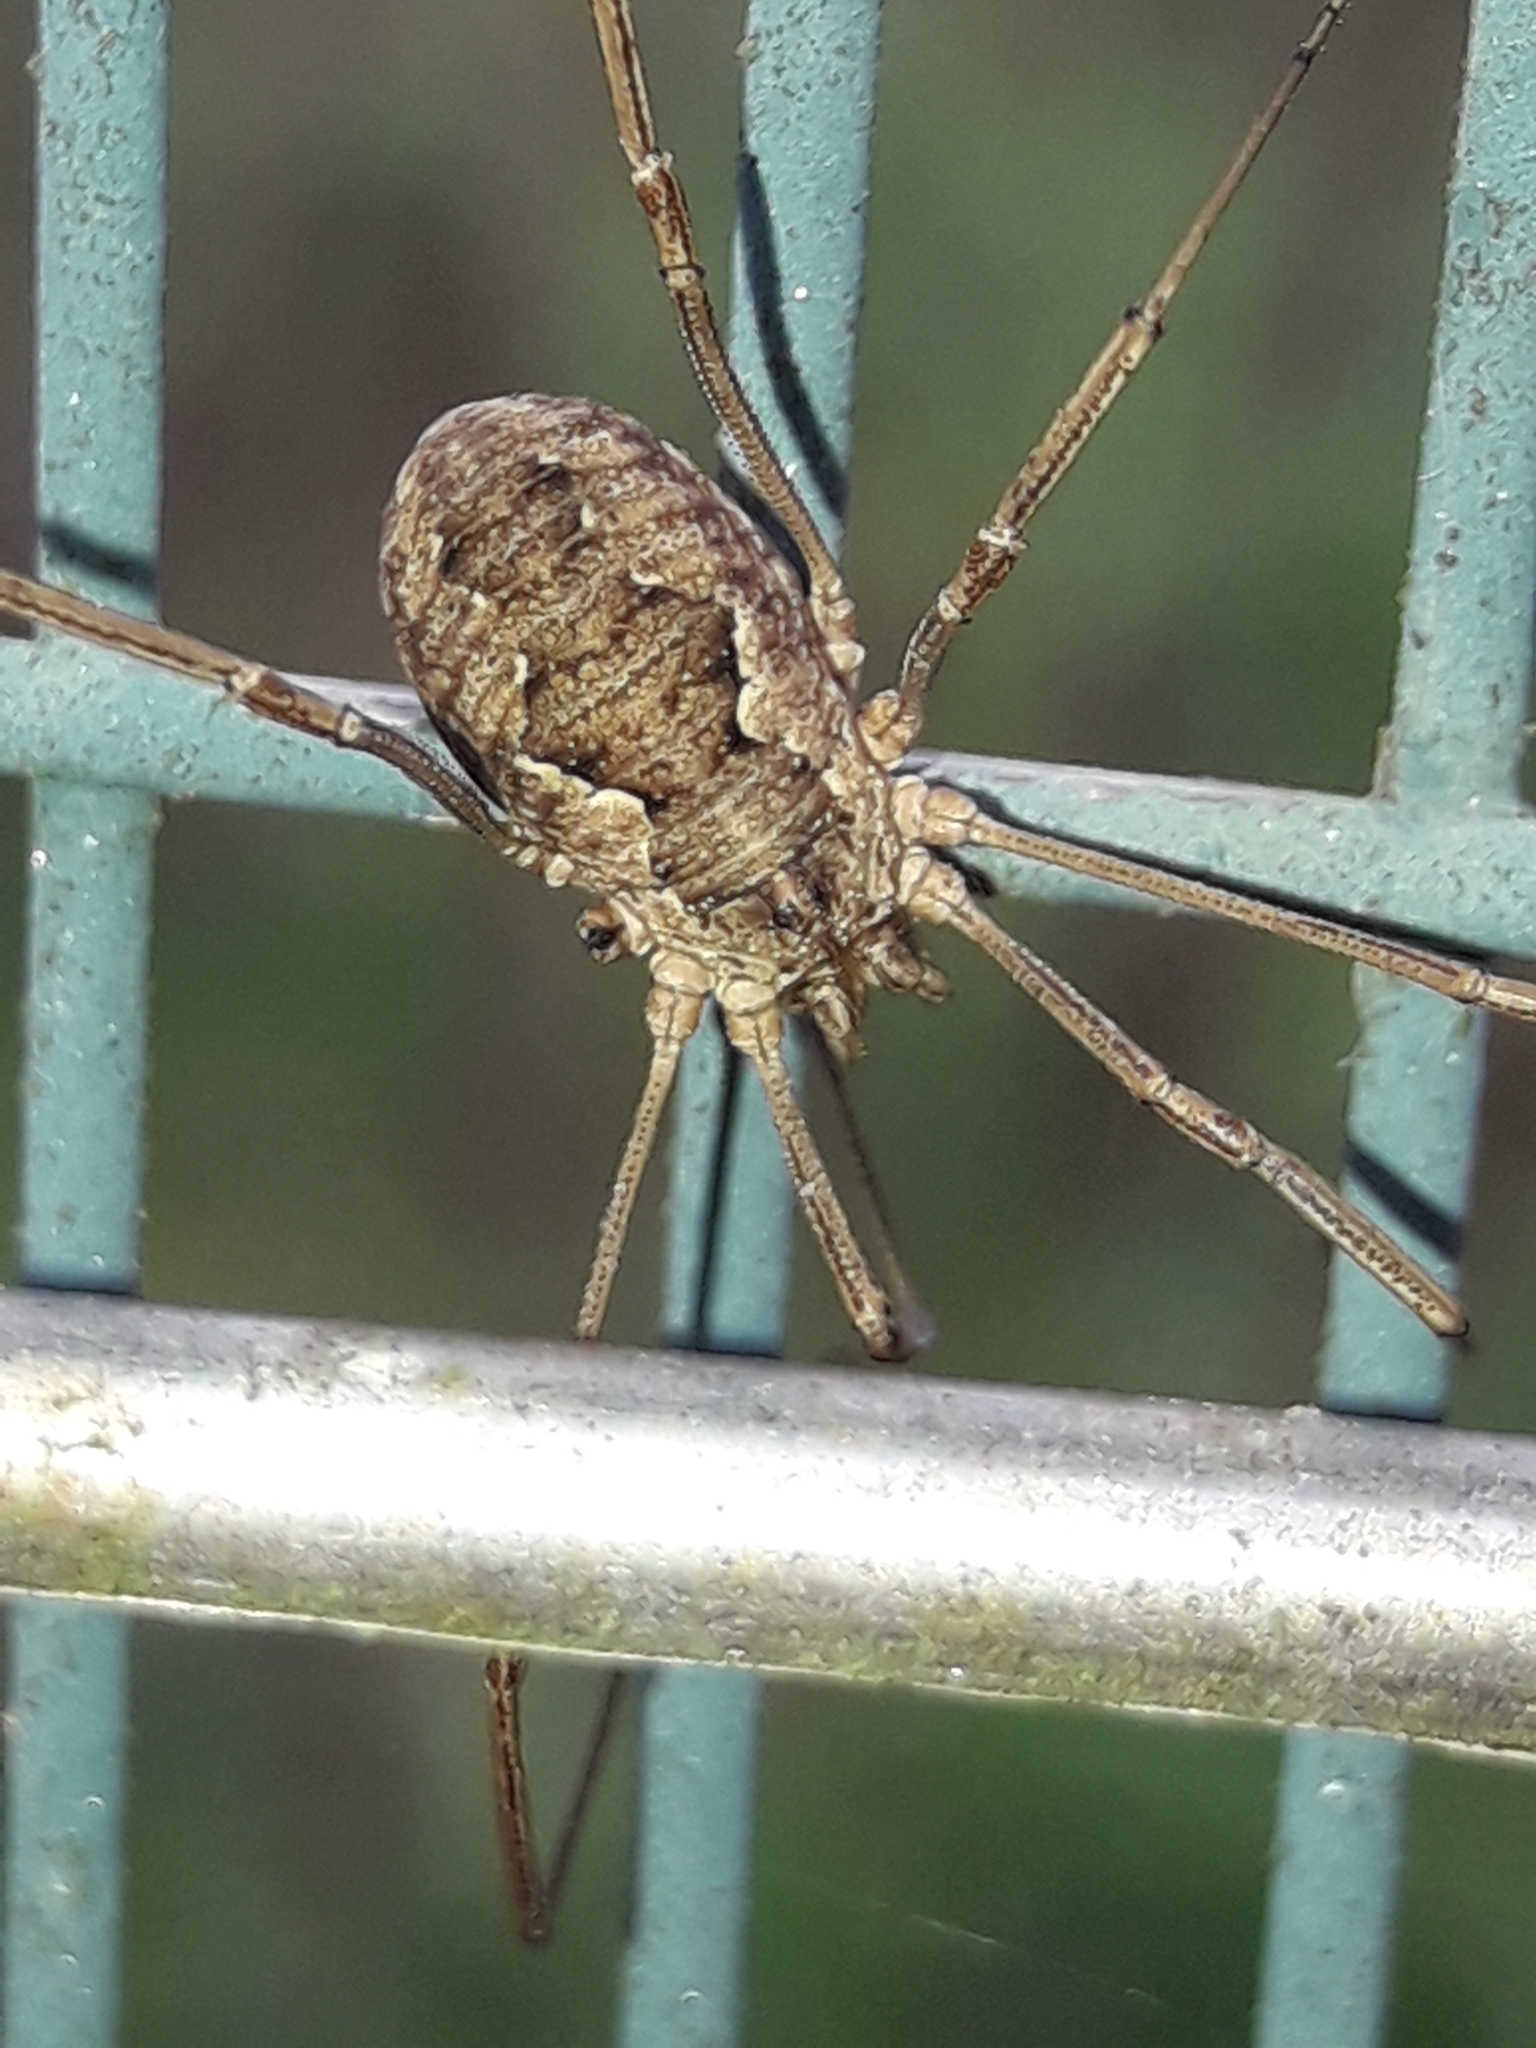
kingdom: Animalia
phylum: Arthropoda
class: Arachnida
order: Opiliones
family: Phalangiidae
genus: Phalangium
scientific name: Phalangium opilio
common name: Daddy longleg
